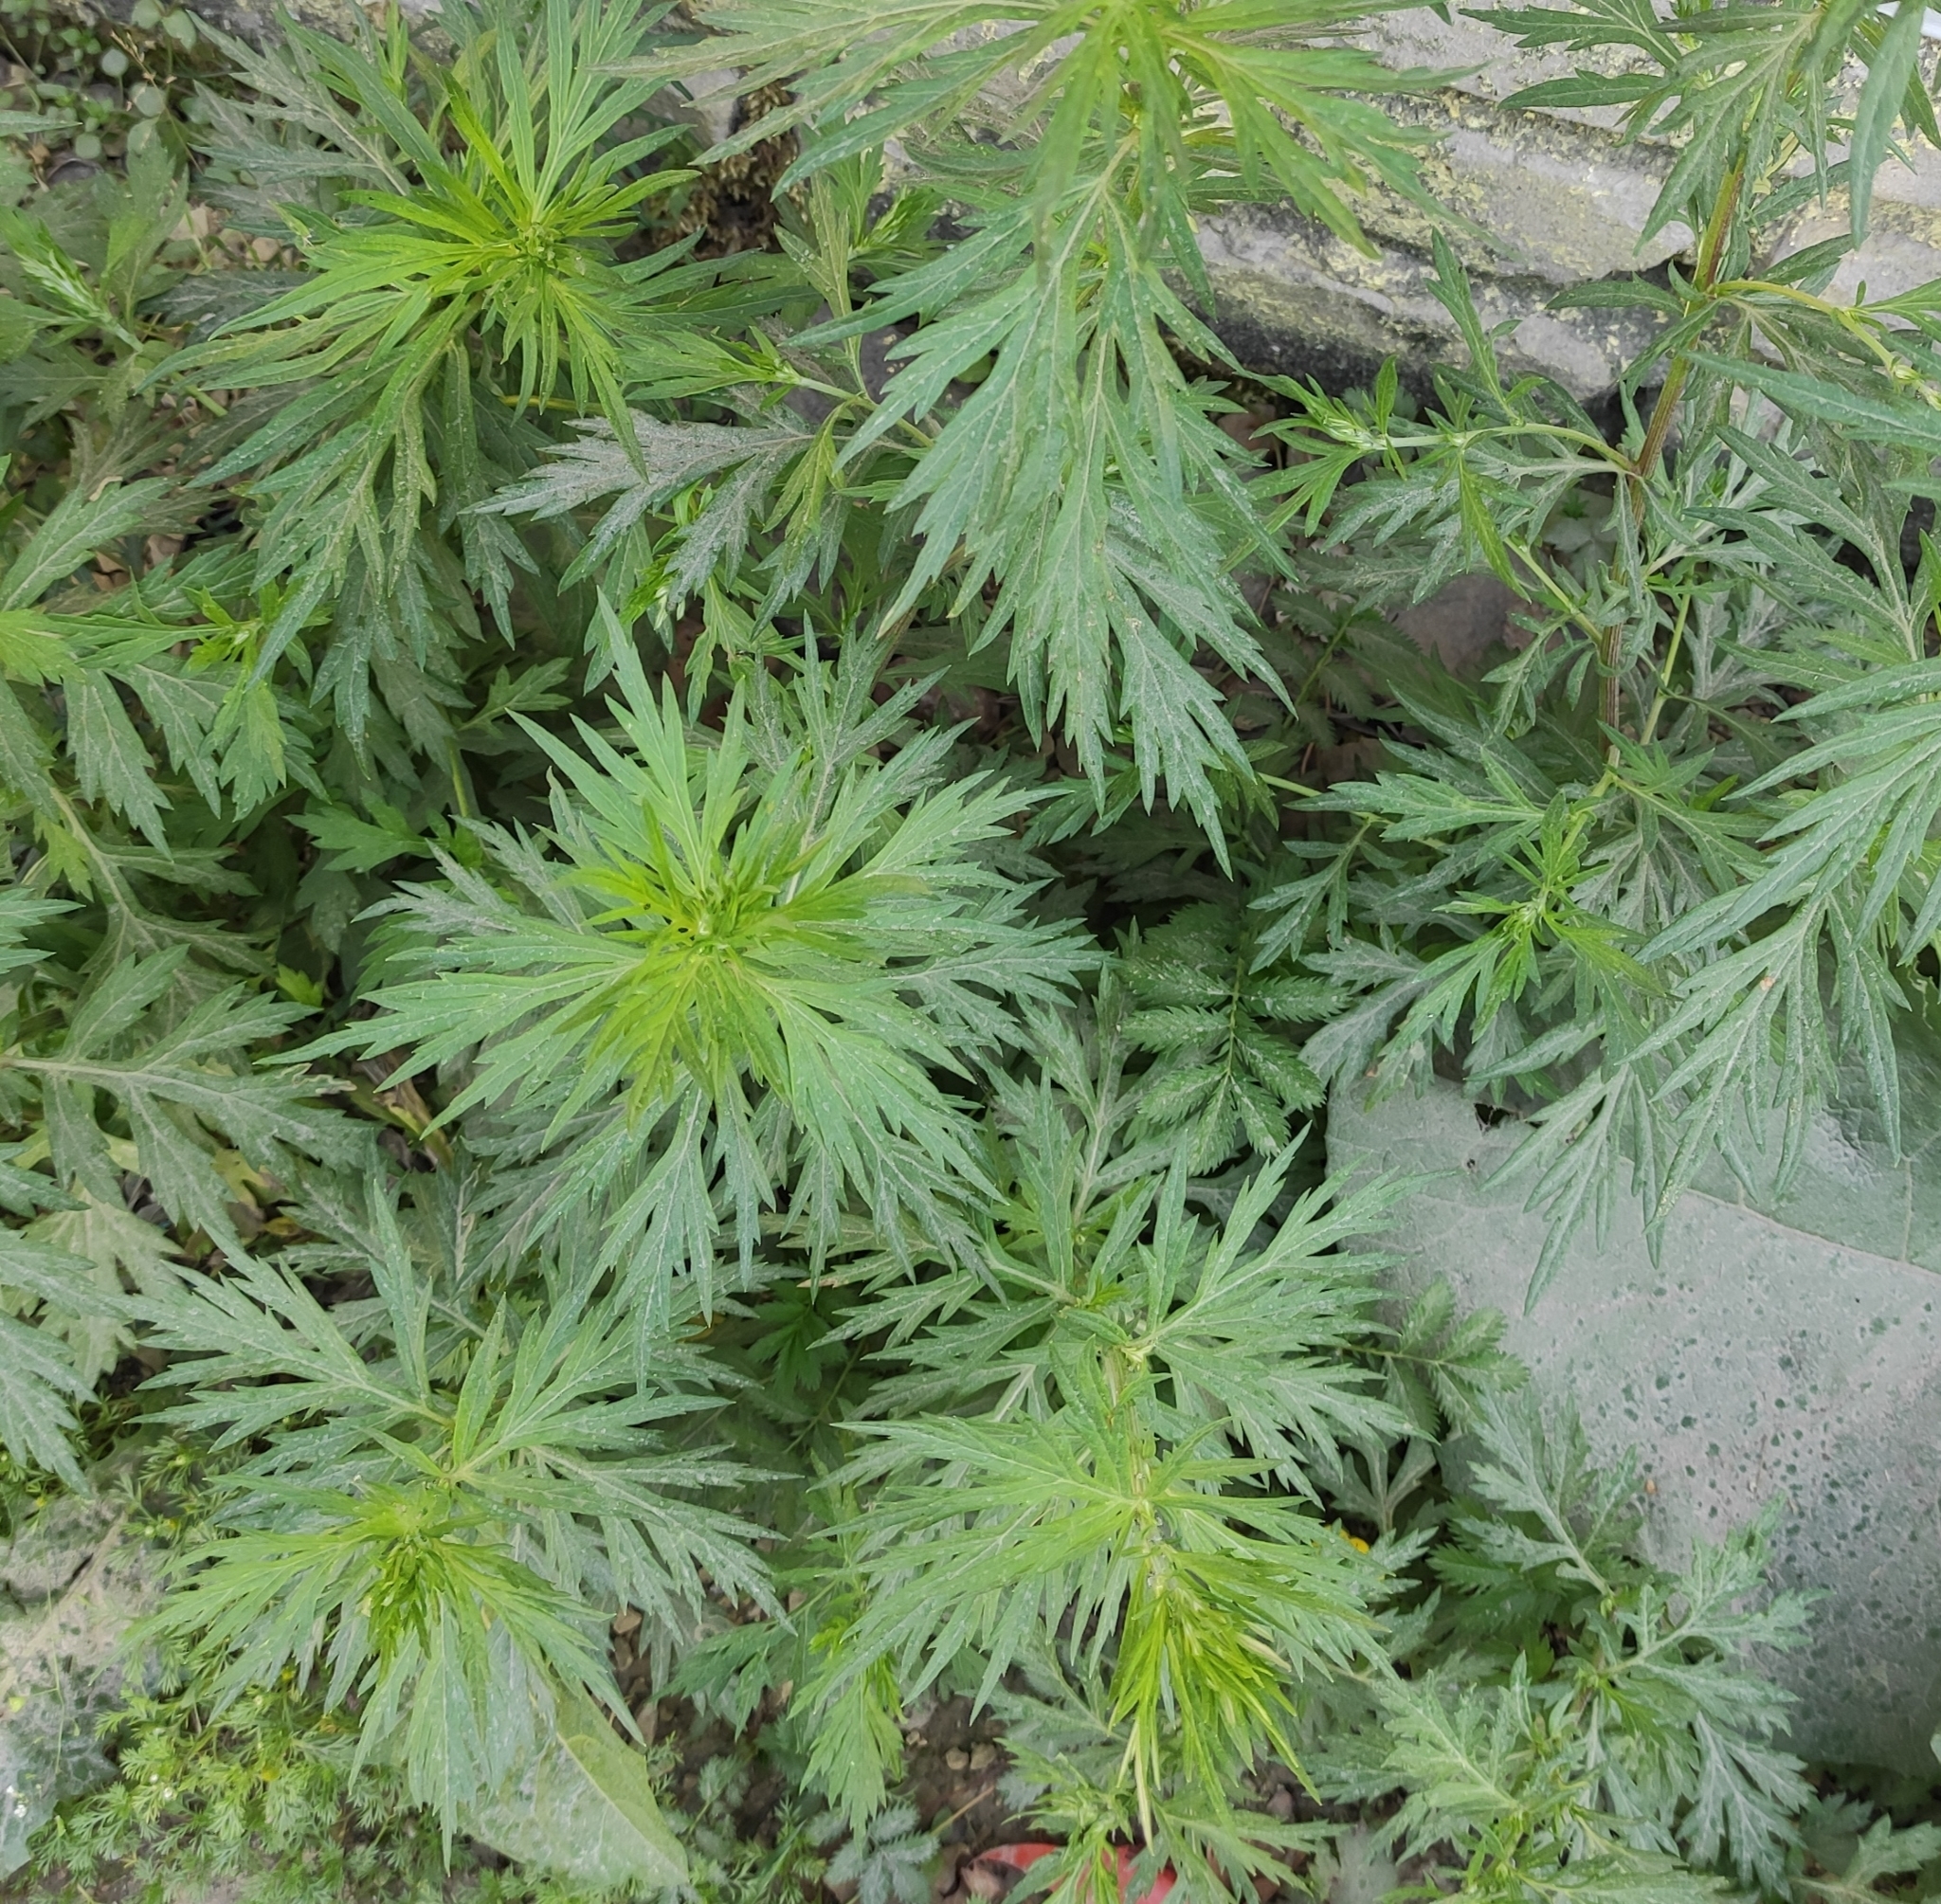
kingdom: Plantae
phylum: Tracheophyta
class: Magnoliopsida
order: Asterales
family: Asteraceae
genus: Artemisia
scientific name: Artemisia vulgaris
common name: Mugwort
